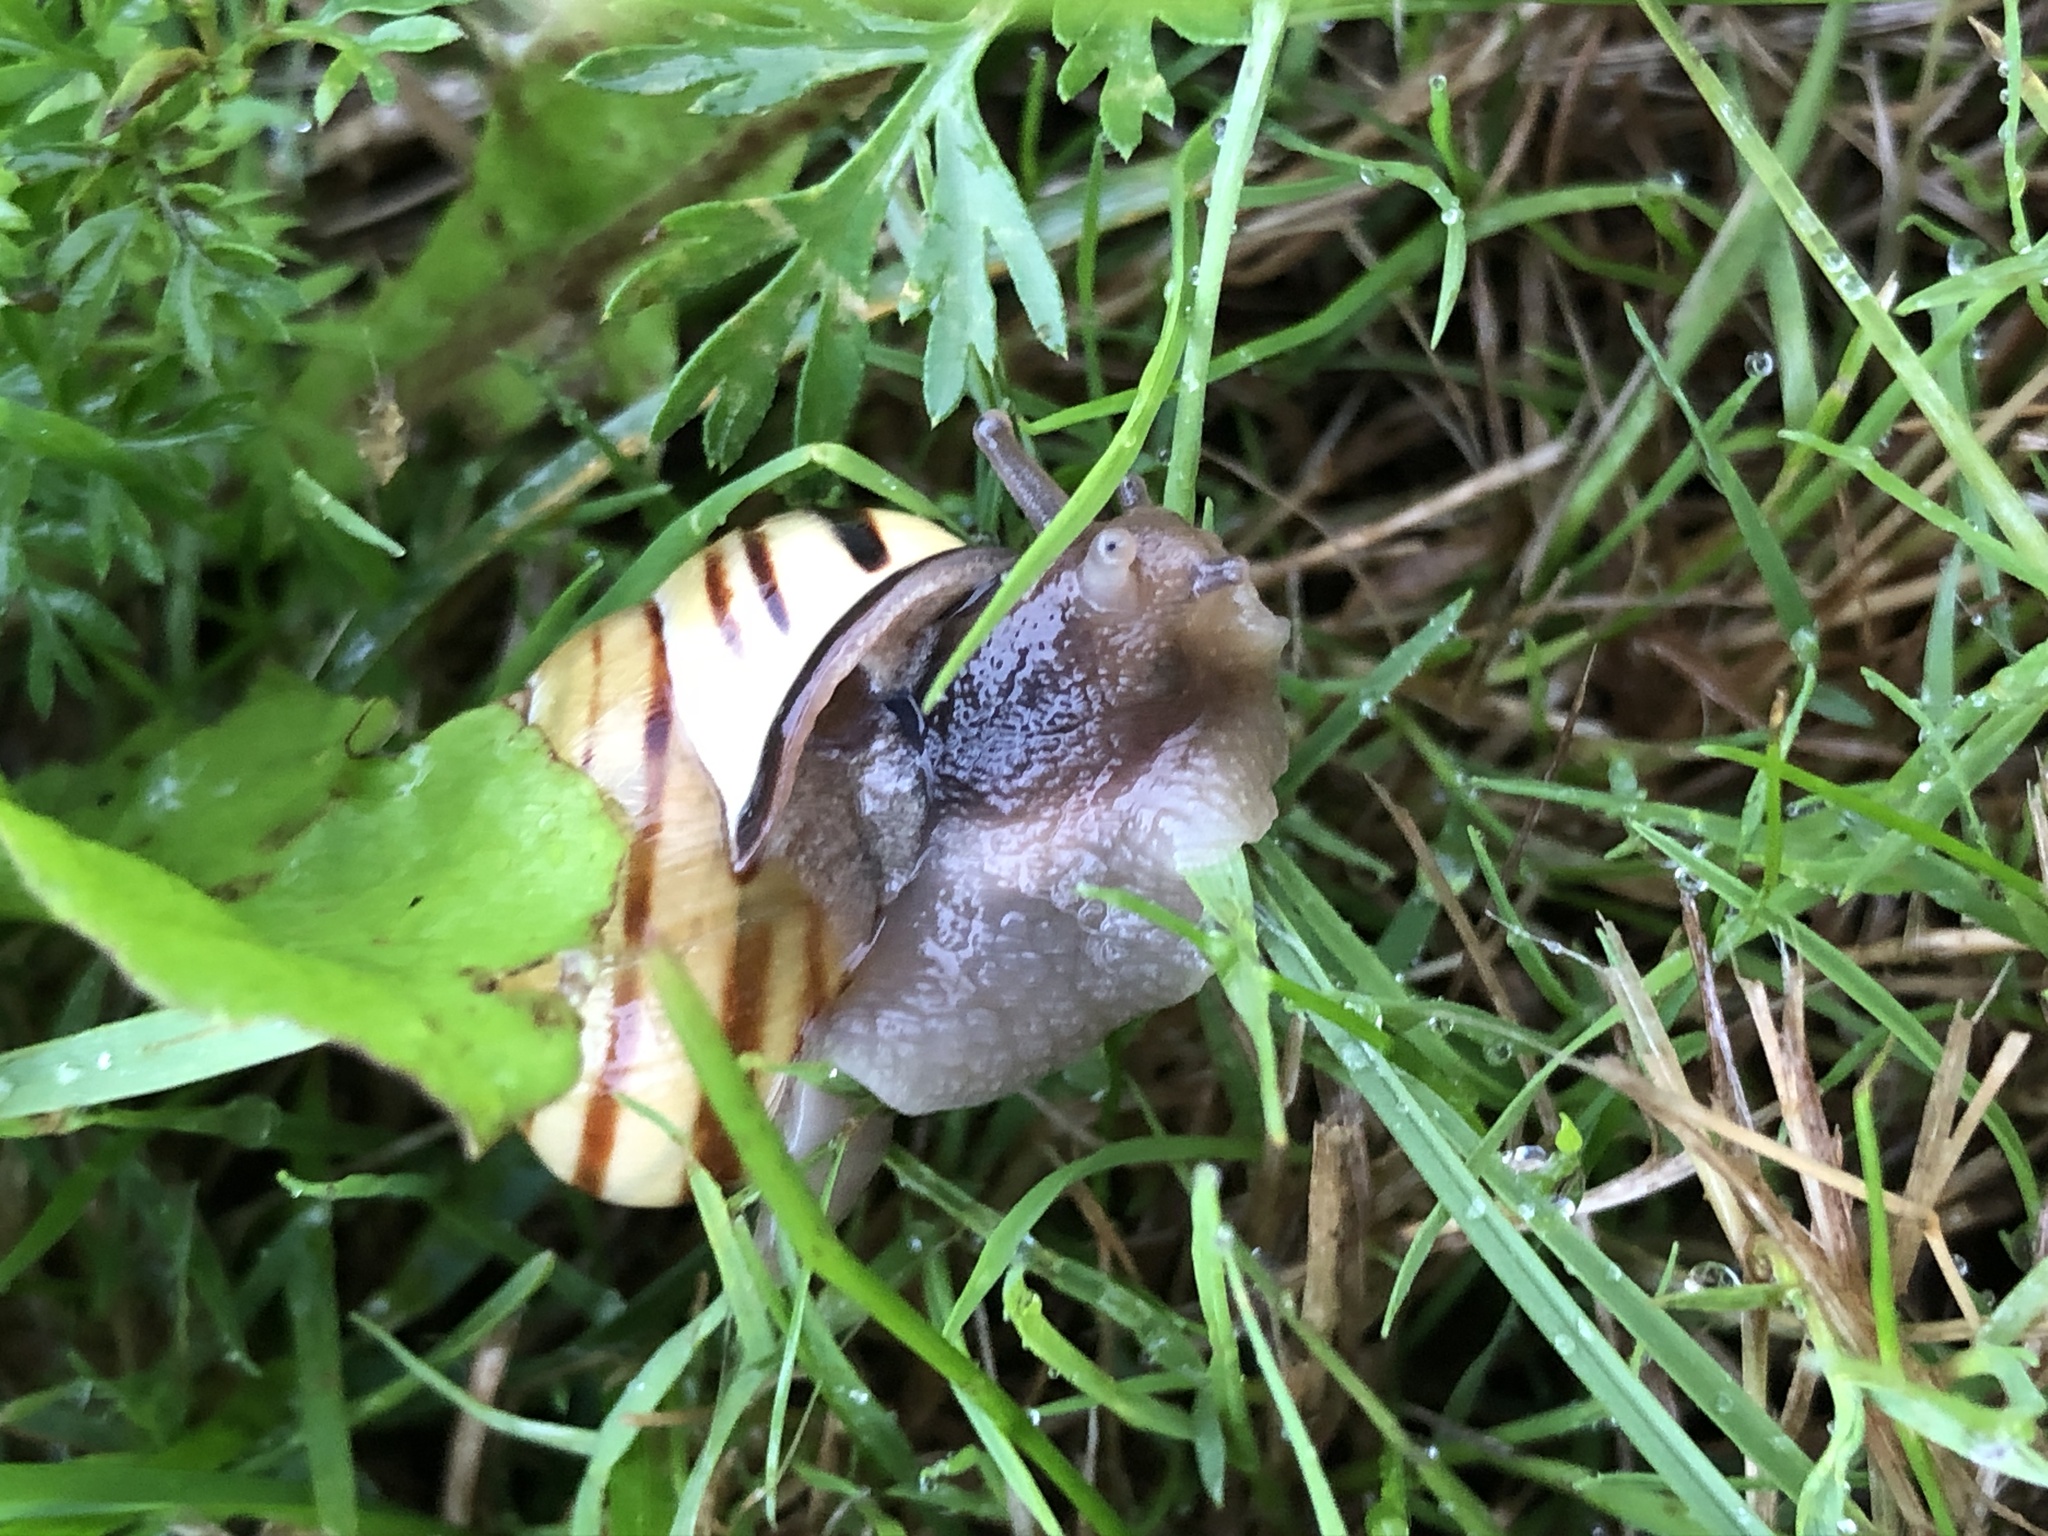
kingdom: Animalia
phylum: Mollusca
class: Gastropoda
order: Stylommatophora
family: Helicidae
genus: Cepaea
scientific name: Cepaea nemoralis
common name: Grovesnail
